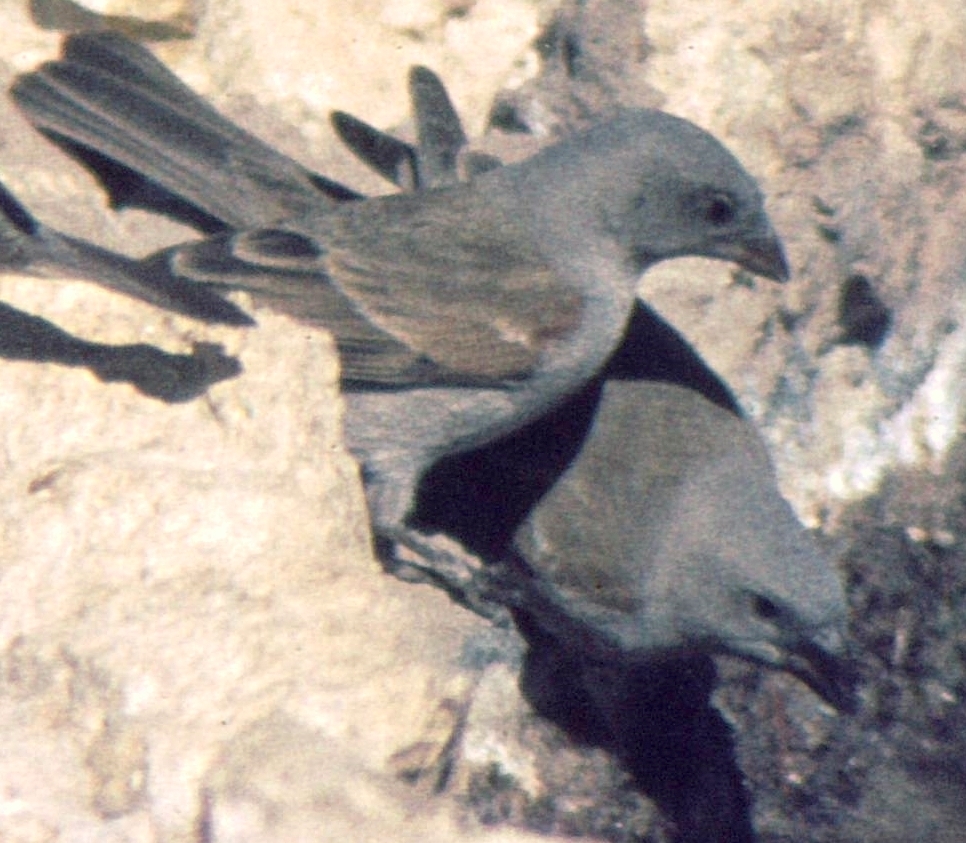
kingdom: Animalia
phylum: Chordata
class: Aves
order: Passeriformes
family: Passeridae
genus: Passer
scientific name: Passer diffusus
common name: Southern grey-headed sparrow
